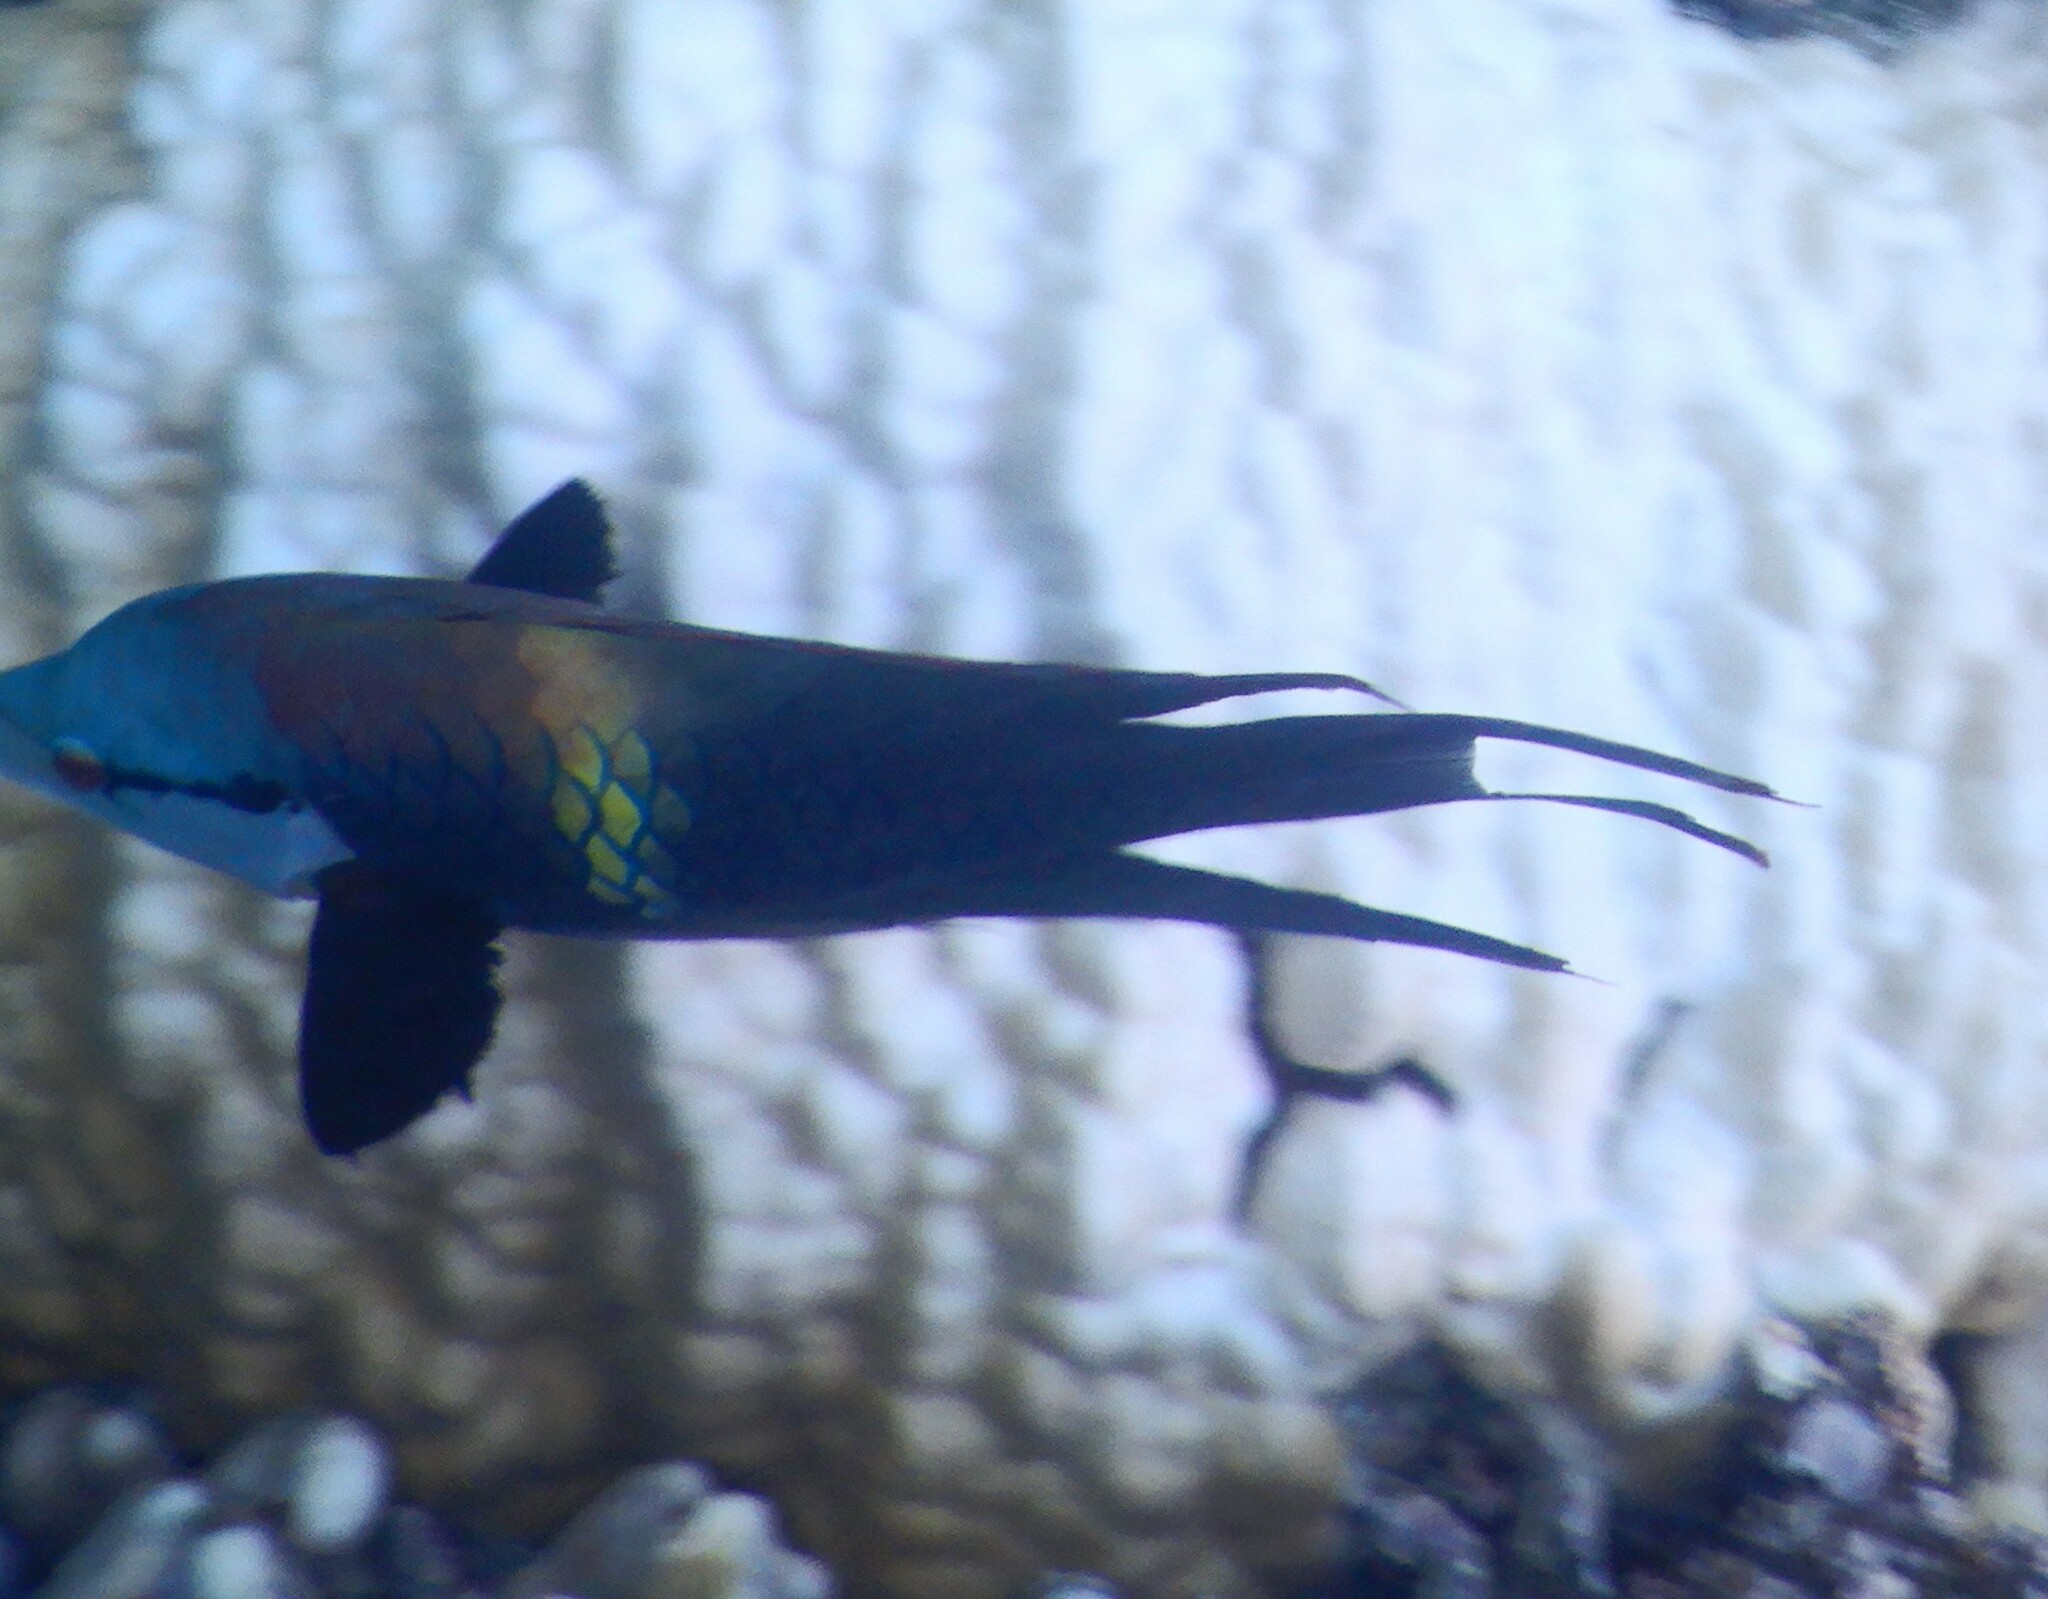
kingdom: Animalia
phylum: Chordata
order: Perciformes
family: Labridae
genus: Epibulus
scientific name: Epibulus insidiator
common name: Slingjaw wrasse
